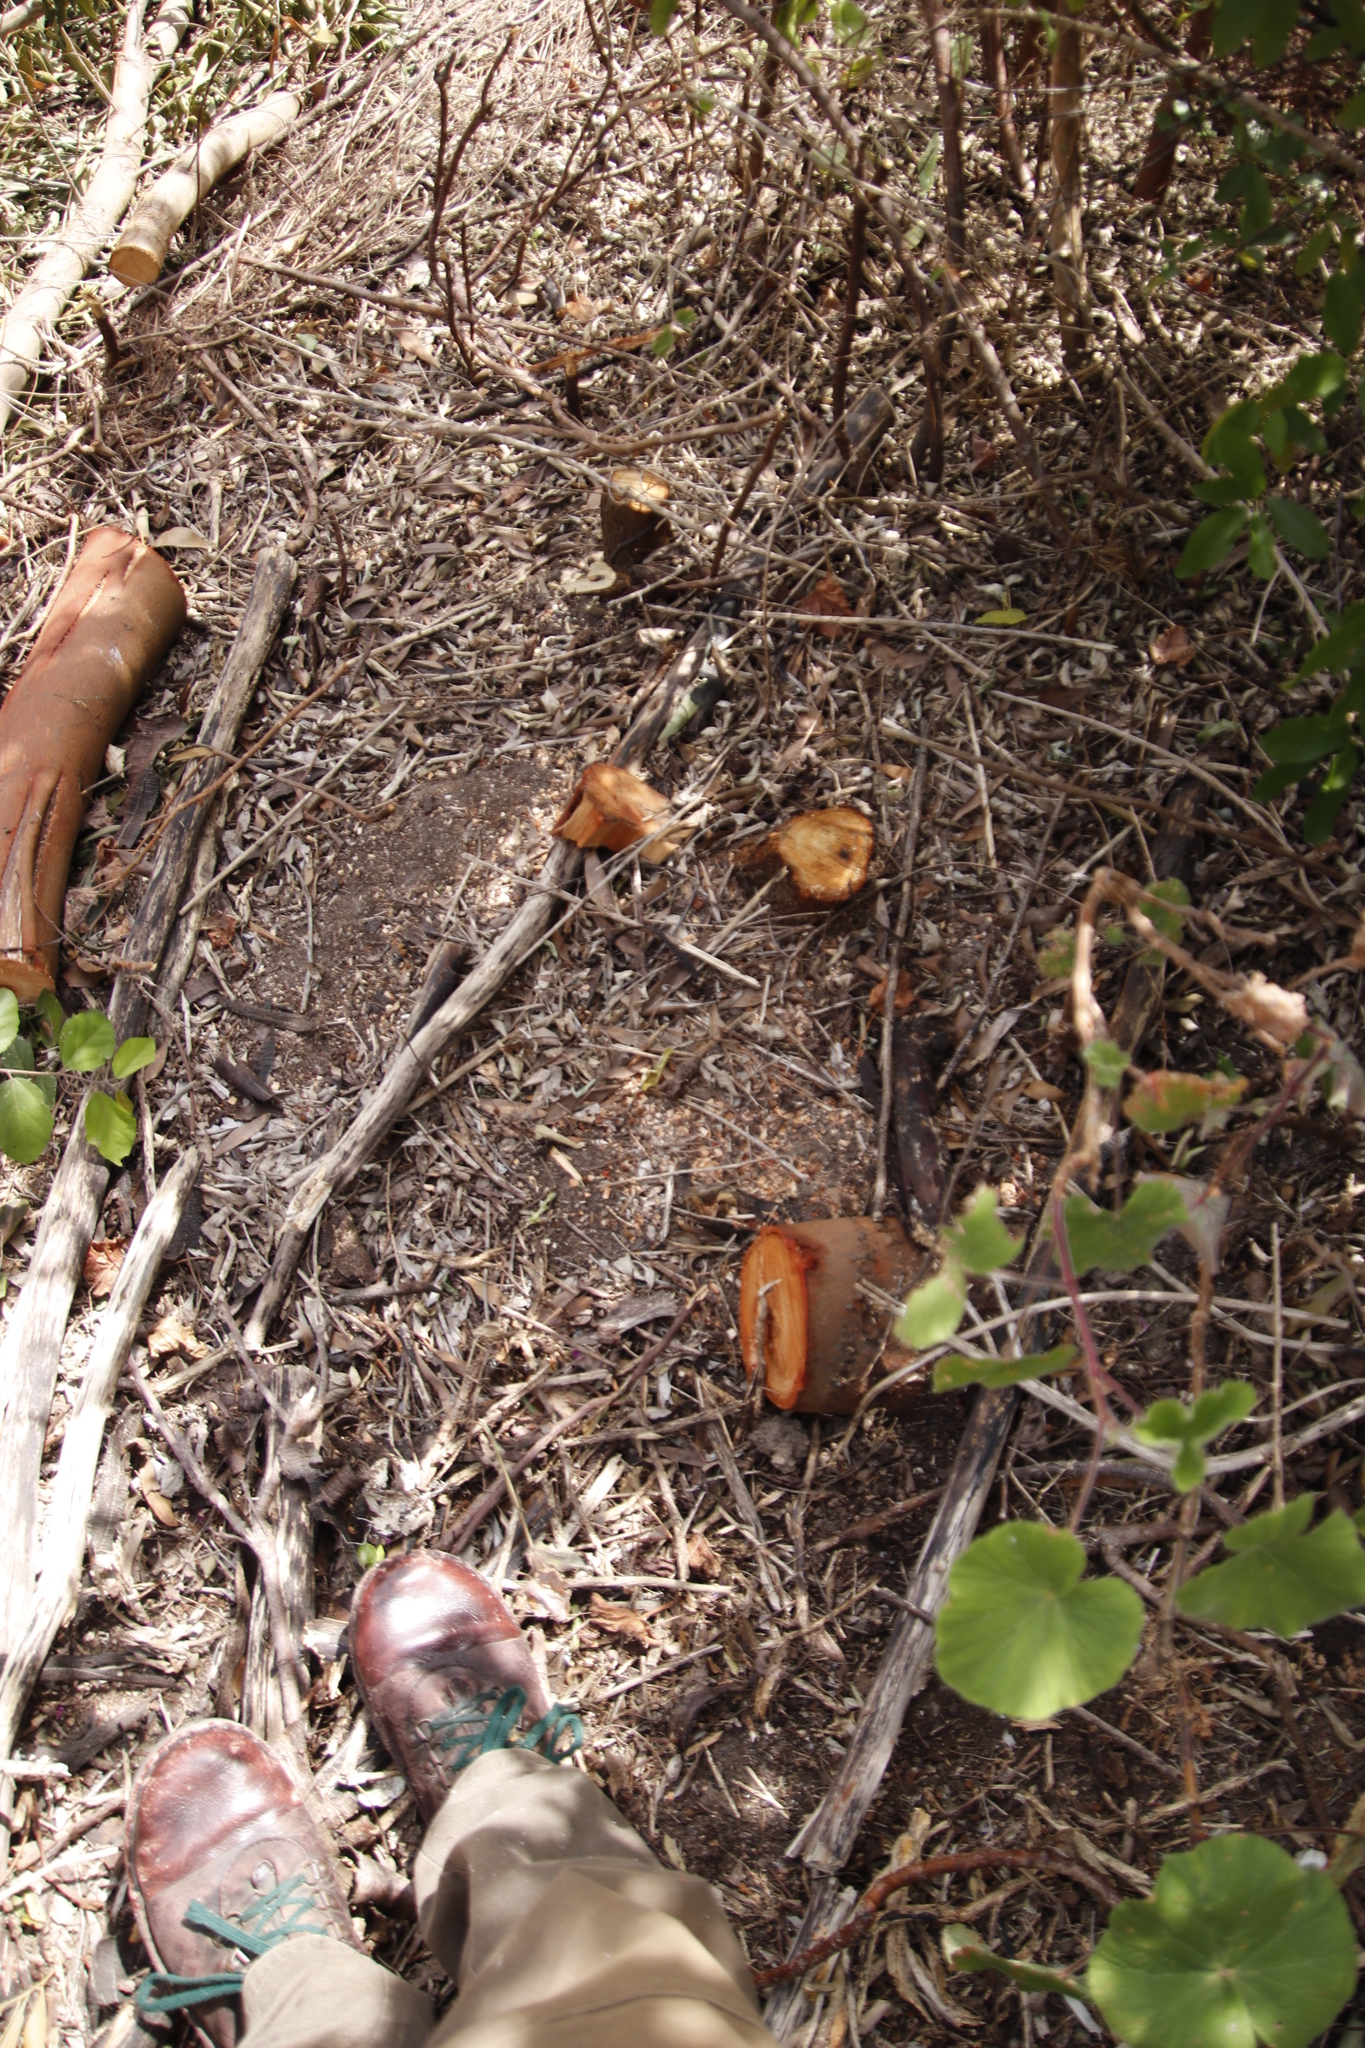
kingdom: Plantae
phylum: Tracheophyta
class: Magnoliopsida
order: Fabales
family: Fabaceae
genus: Acacia
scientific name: Acacia melanoxylon
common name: Blackwood
